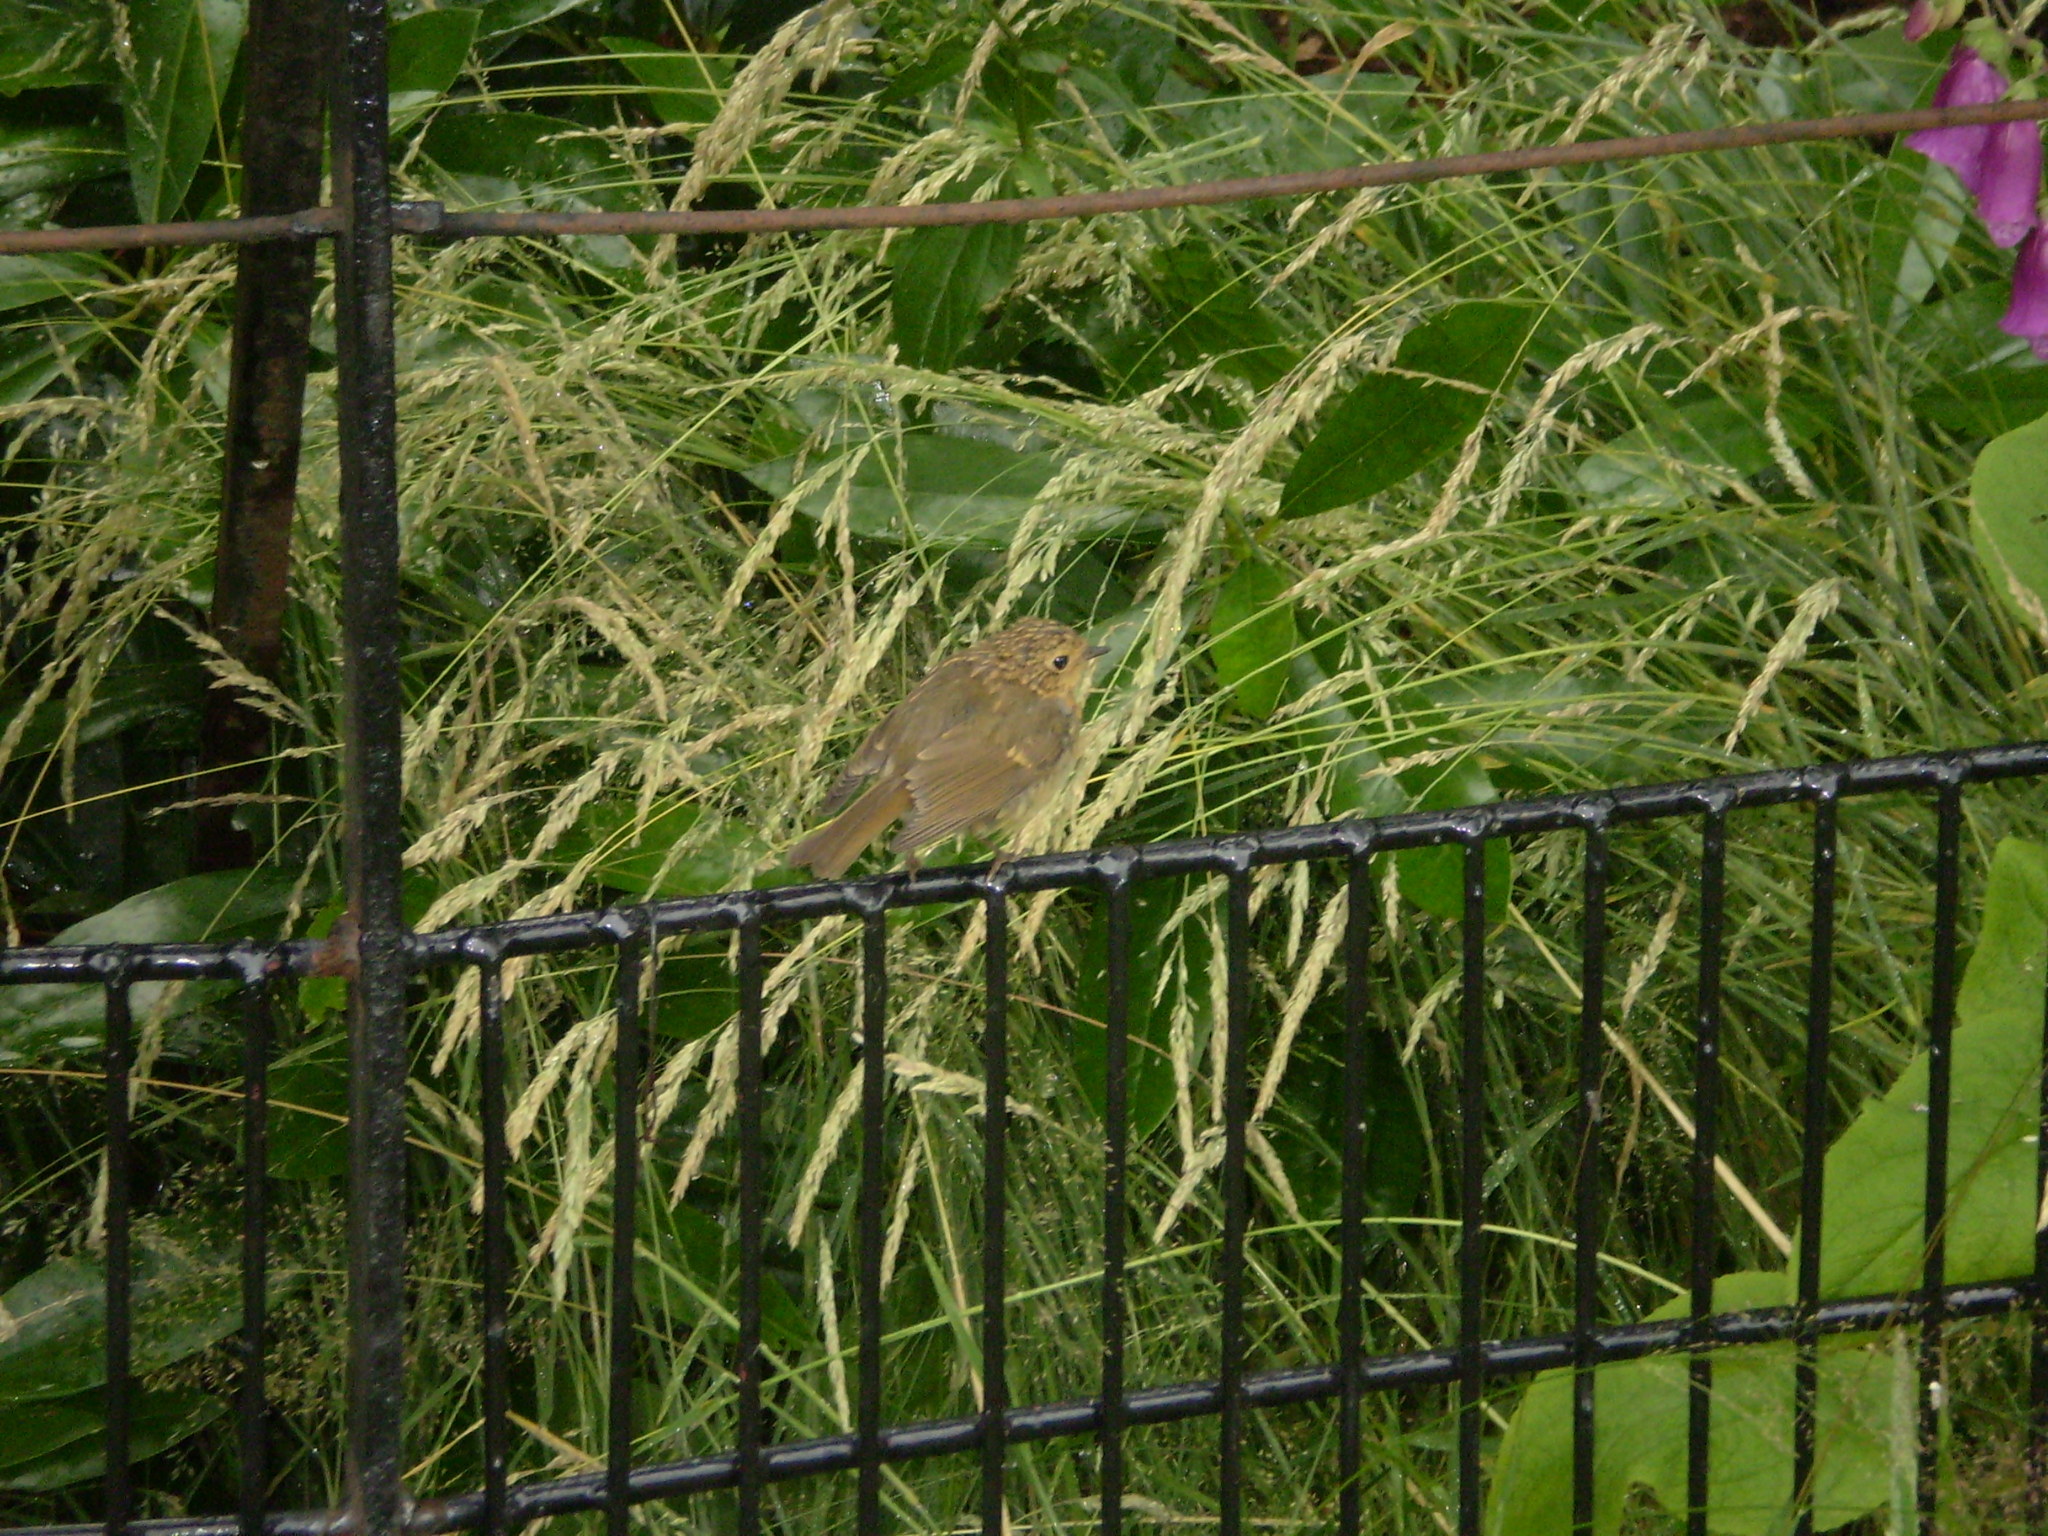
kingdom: Animalia
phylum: Chordata
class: Aves
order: Passeriformes
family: Muscicapidae
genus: Erithacus
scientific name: Erithacus rubecula
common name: European robin
